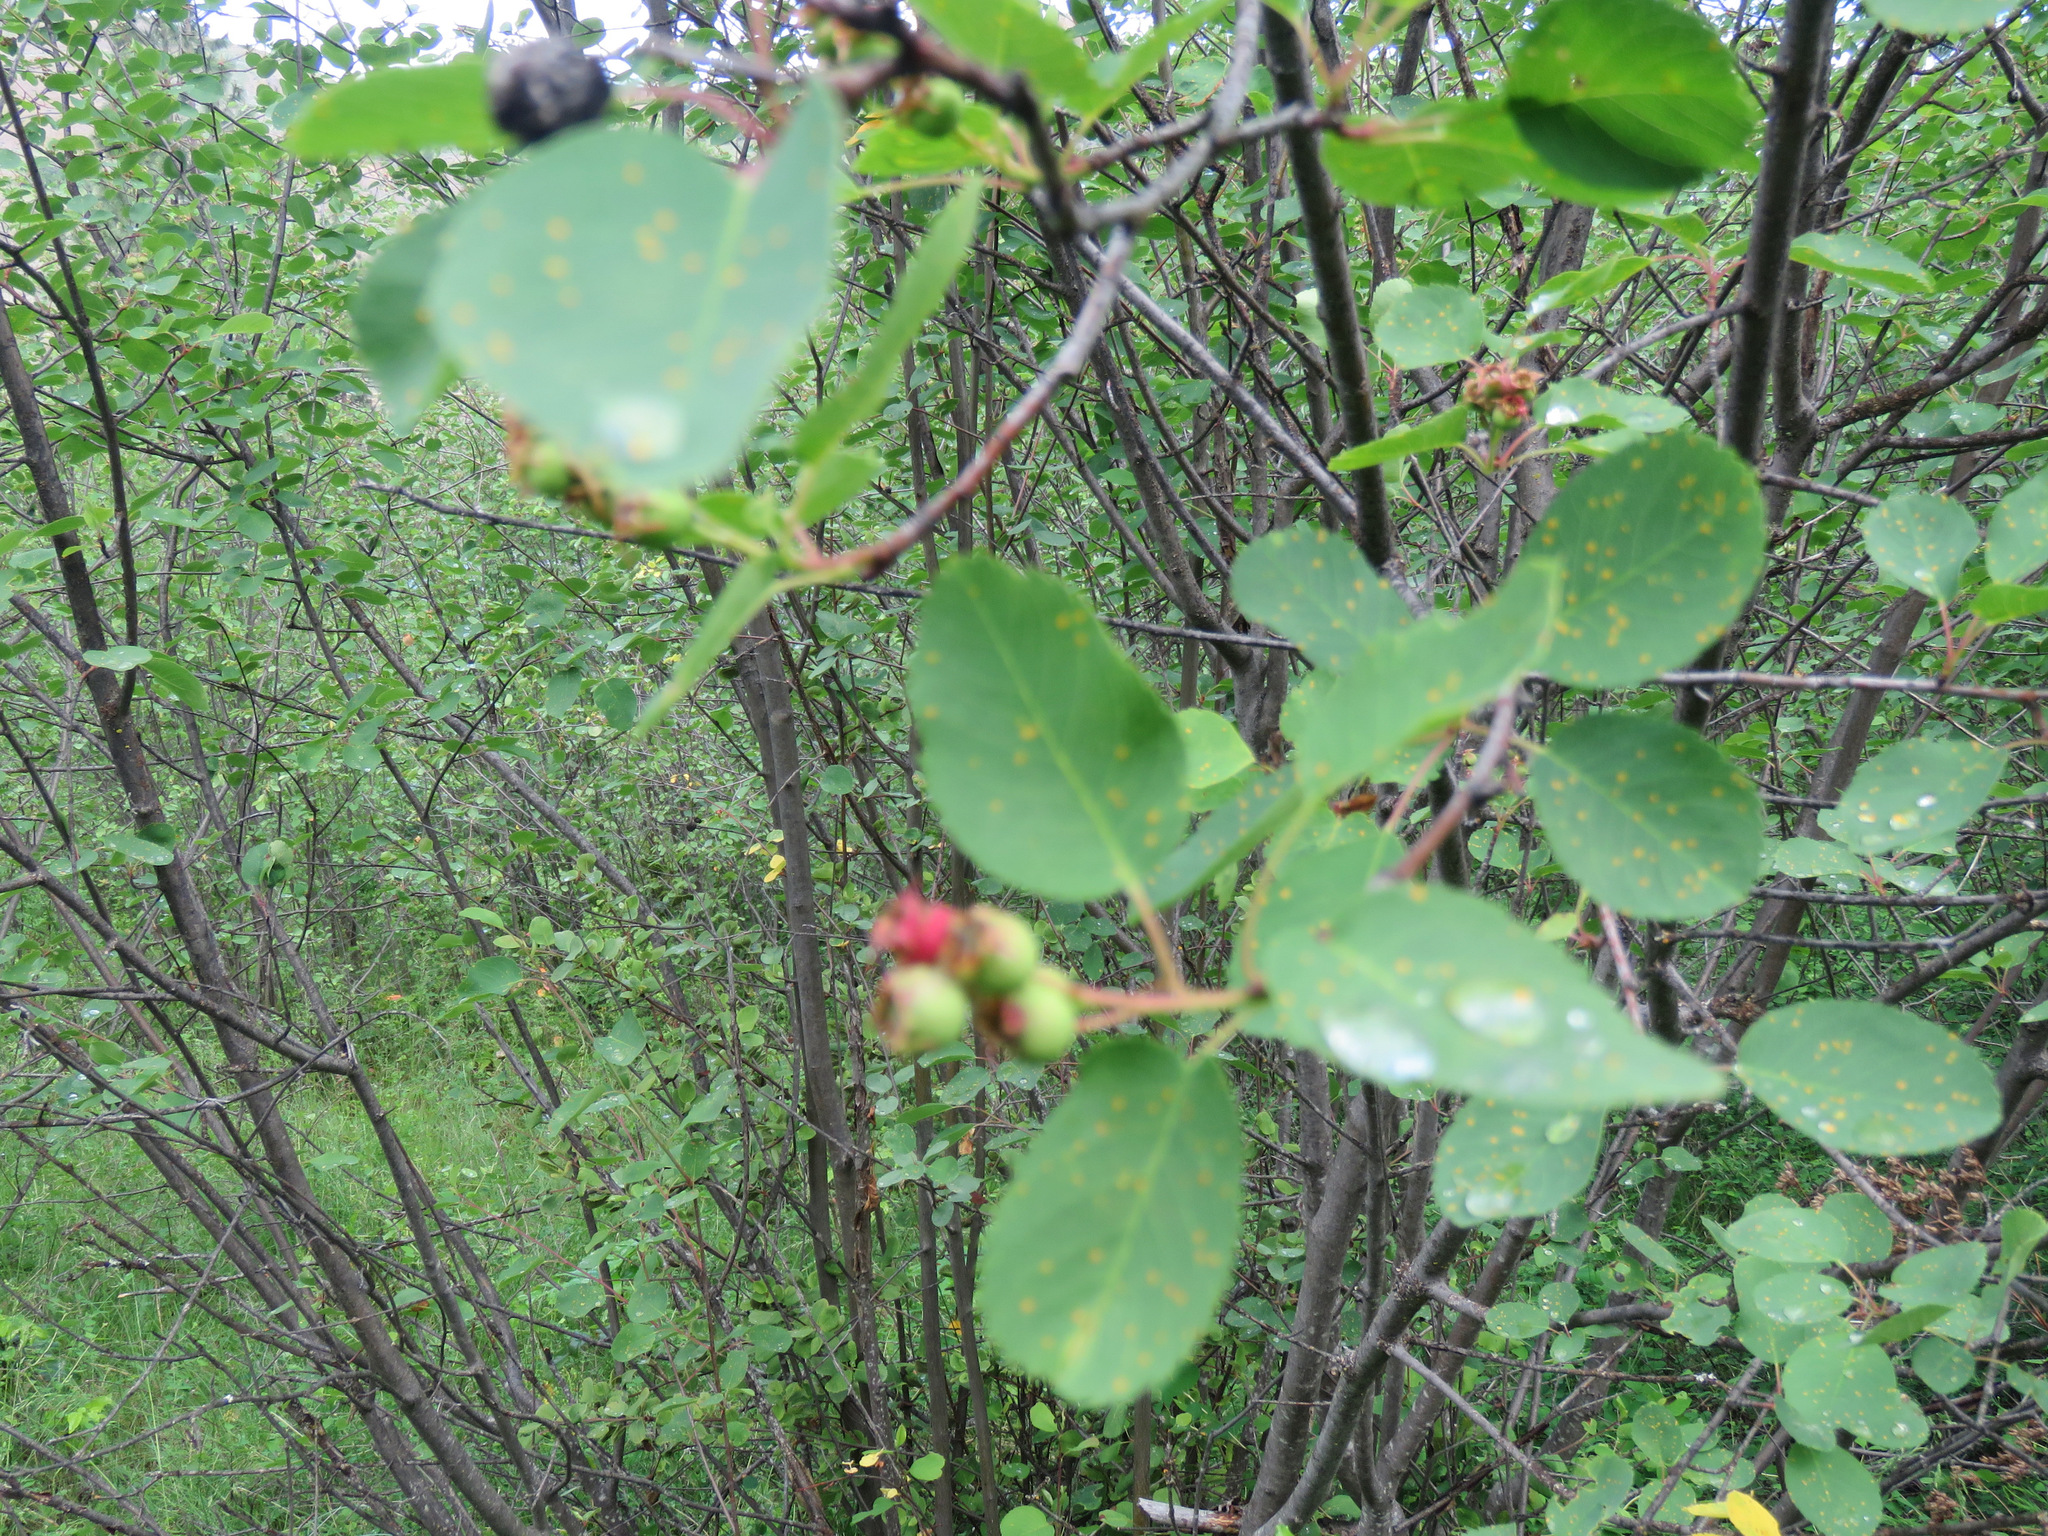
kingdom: Plantae
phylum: Tracheophyta
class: Magnoliopsida
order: Rosales
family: Rosaceae
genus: Amelanchier
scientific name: Amelanchier alnifolia
